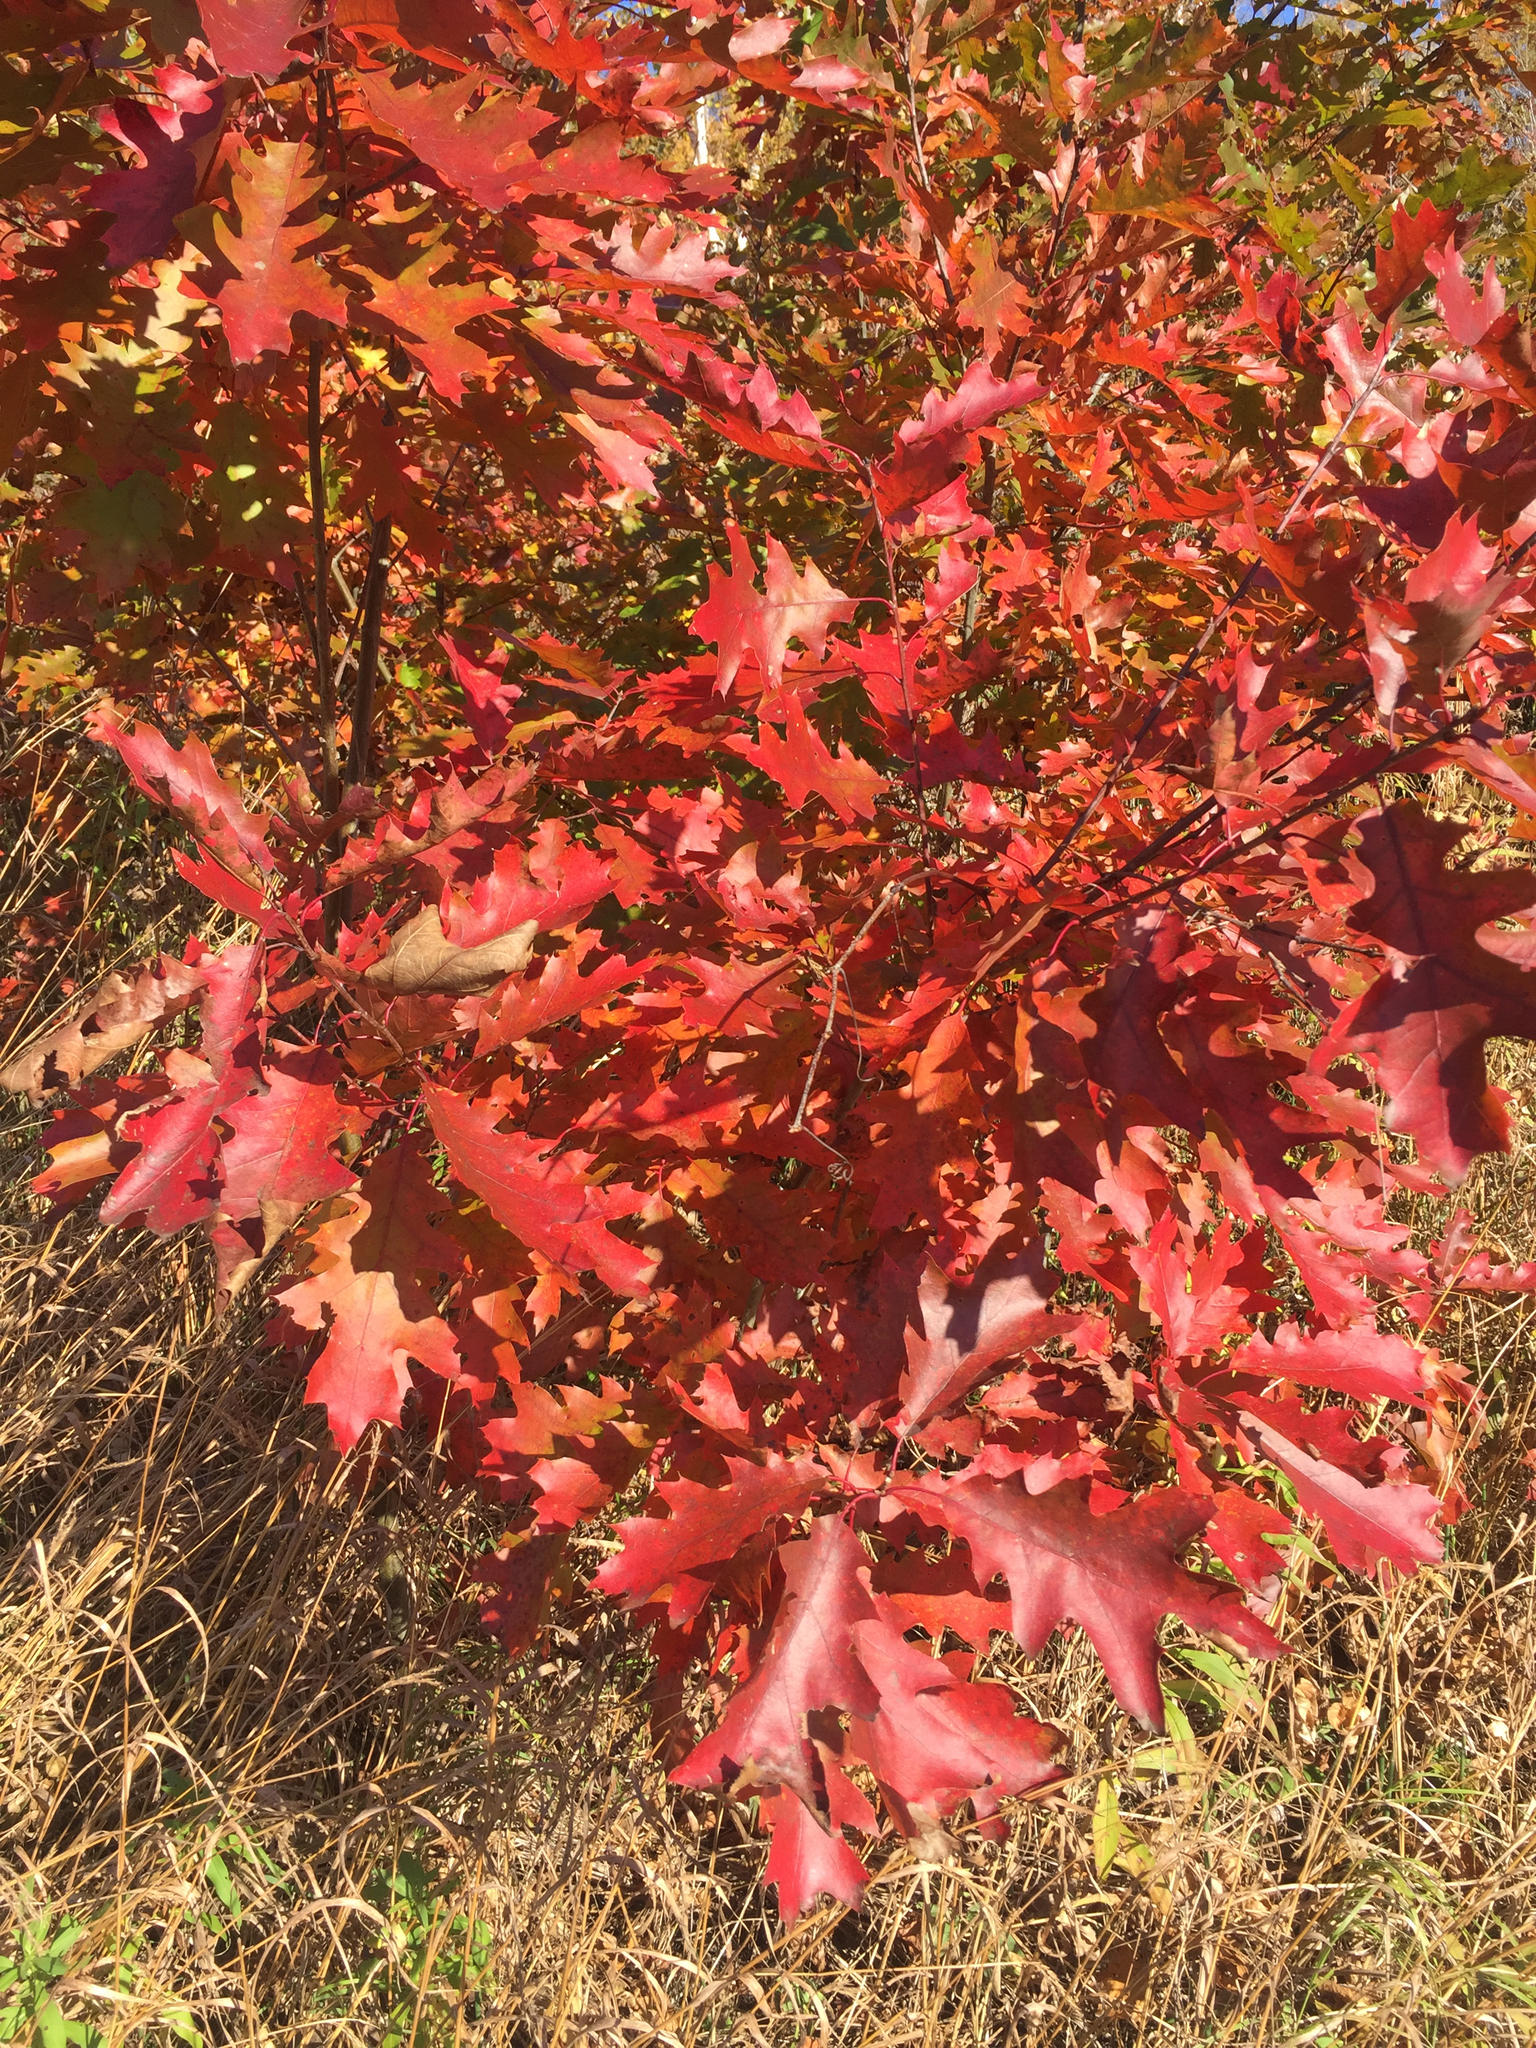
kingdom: Plantae
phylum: Tracheophyta
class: Magnoliopsida
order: Fagales
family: Fagaceae
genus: Quercus
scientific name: Quercus rubra
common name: Red oak
